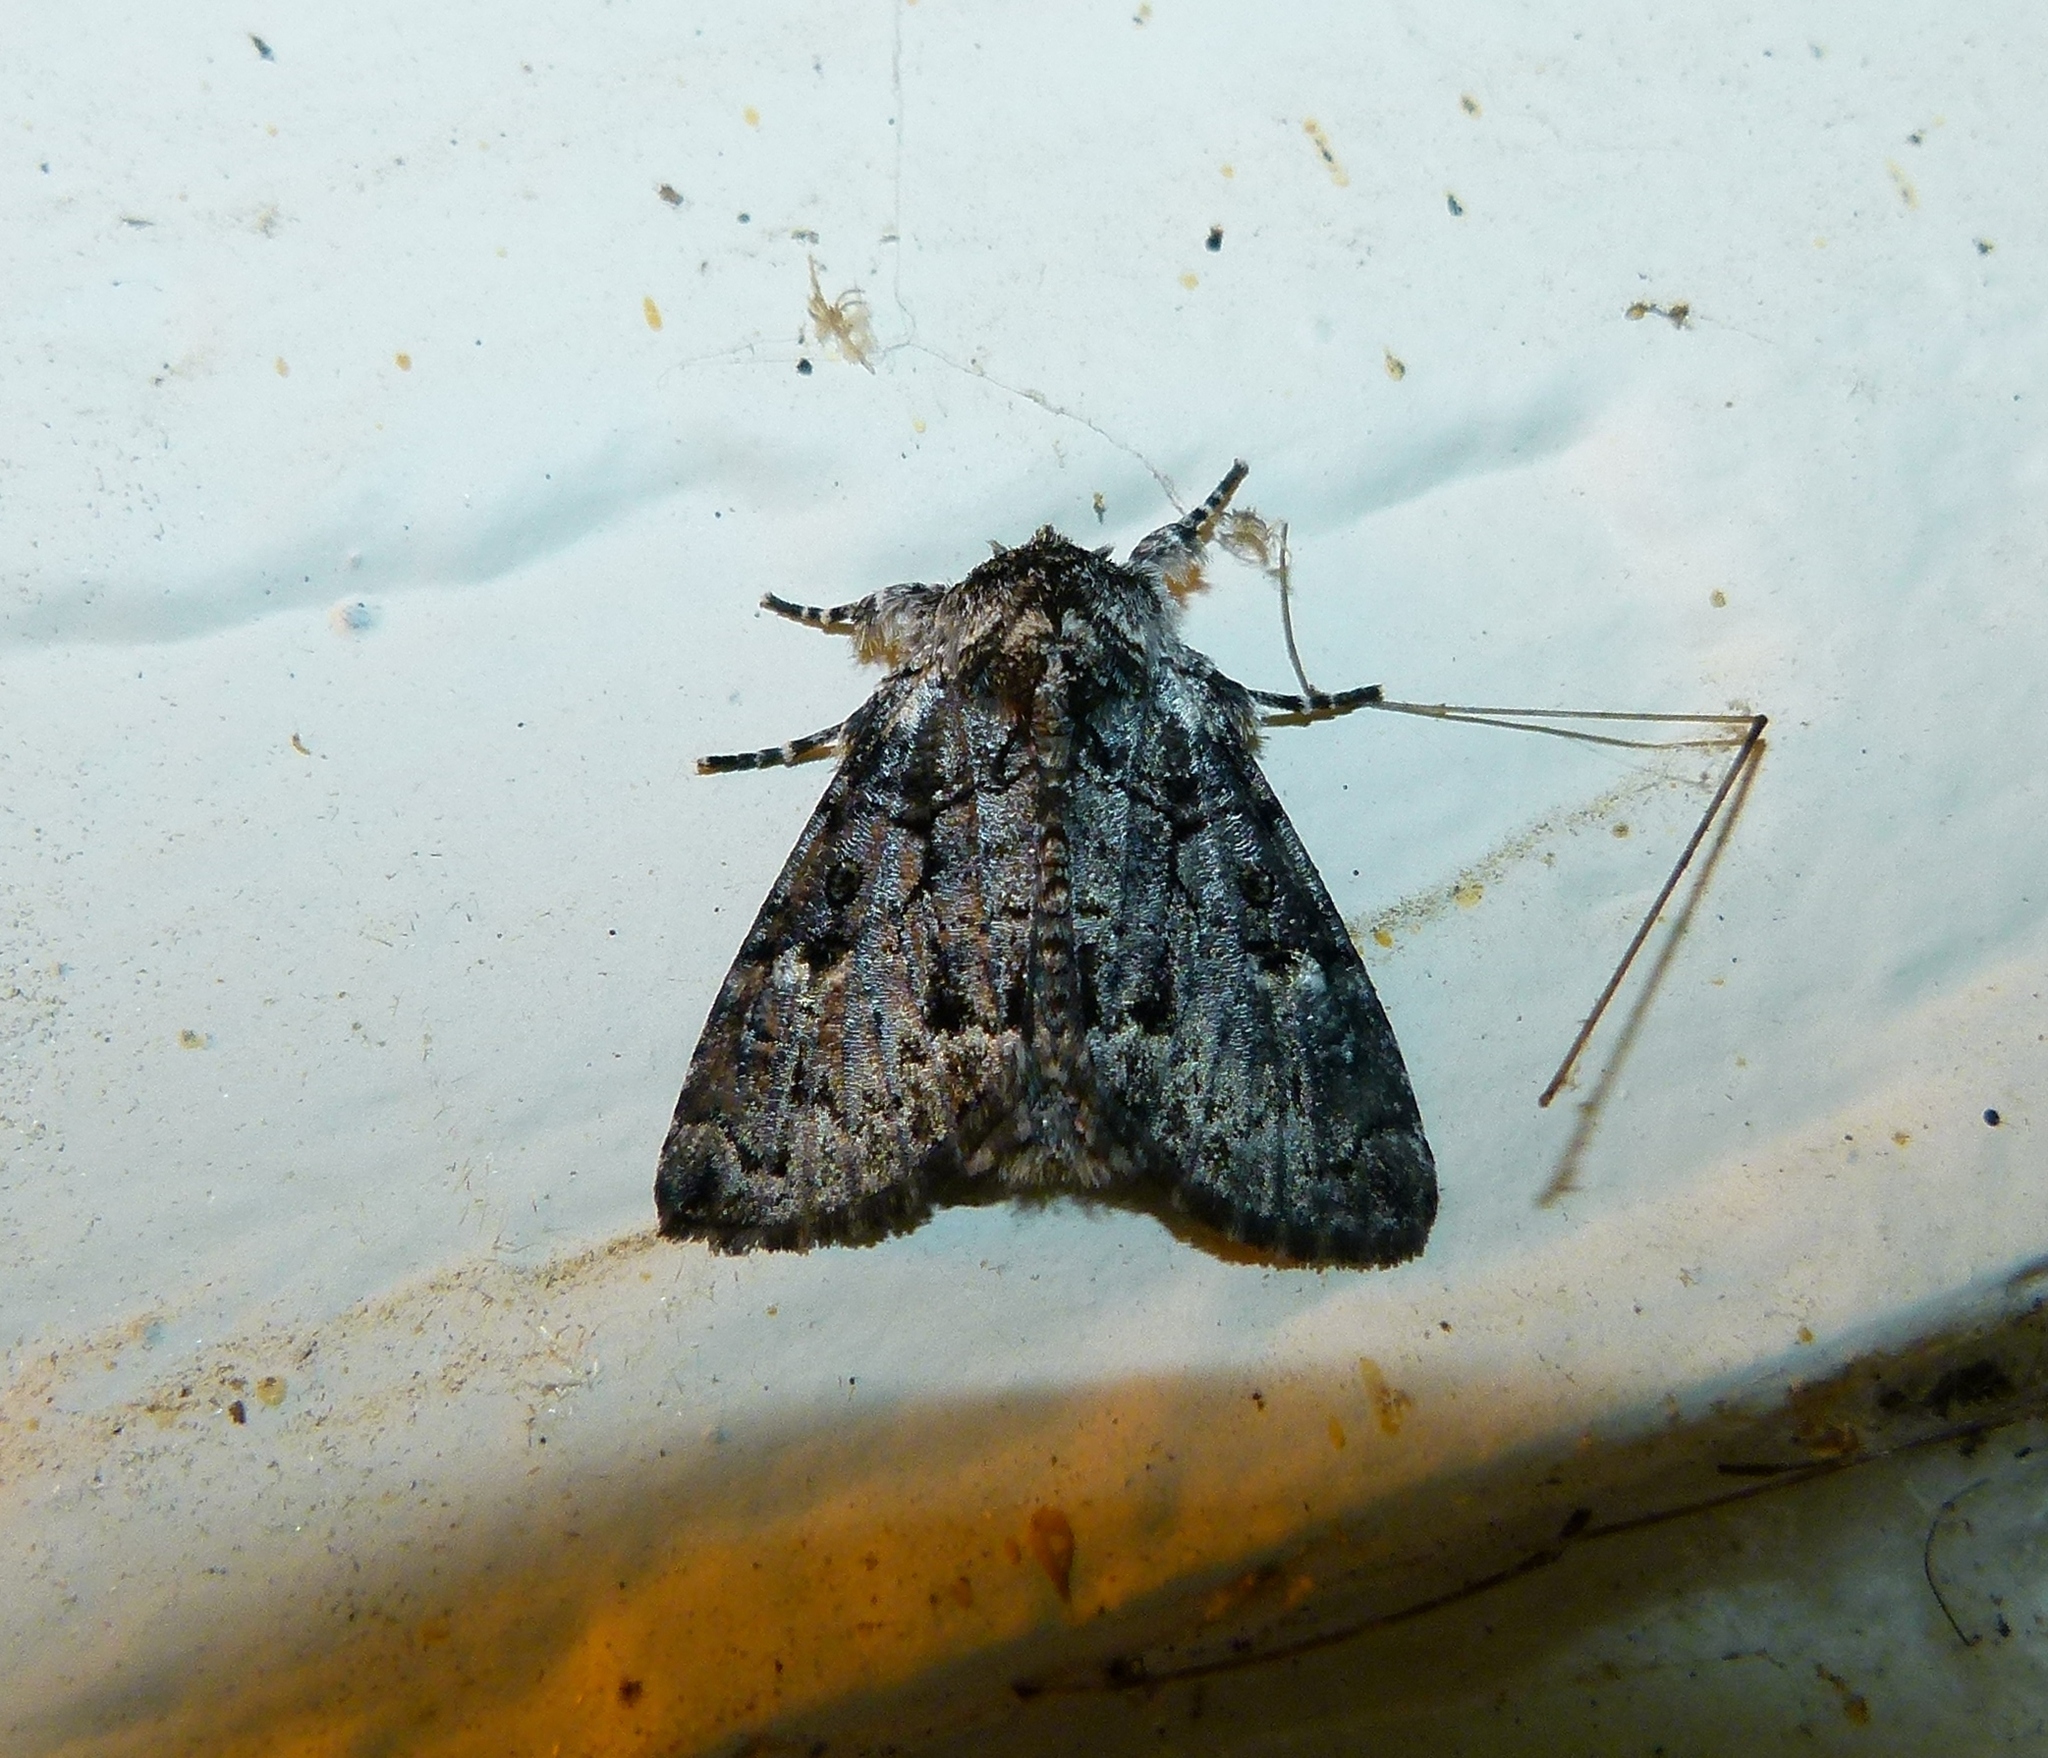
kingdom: Animalia
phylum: Arthropoda
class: Insecta
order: Lepidoptera
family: Noctuidae
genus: Charadra
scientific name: Charadra deridens
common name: Marbled tuffet
